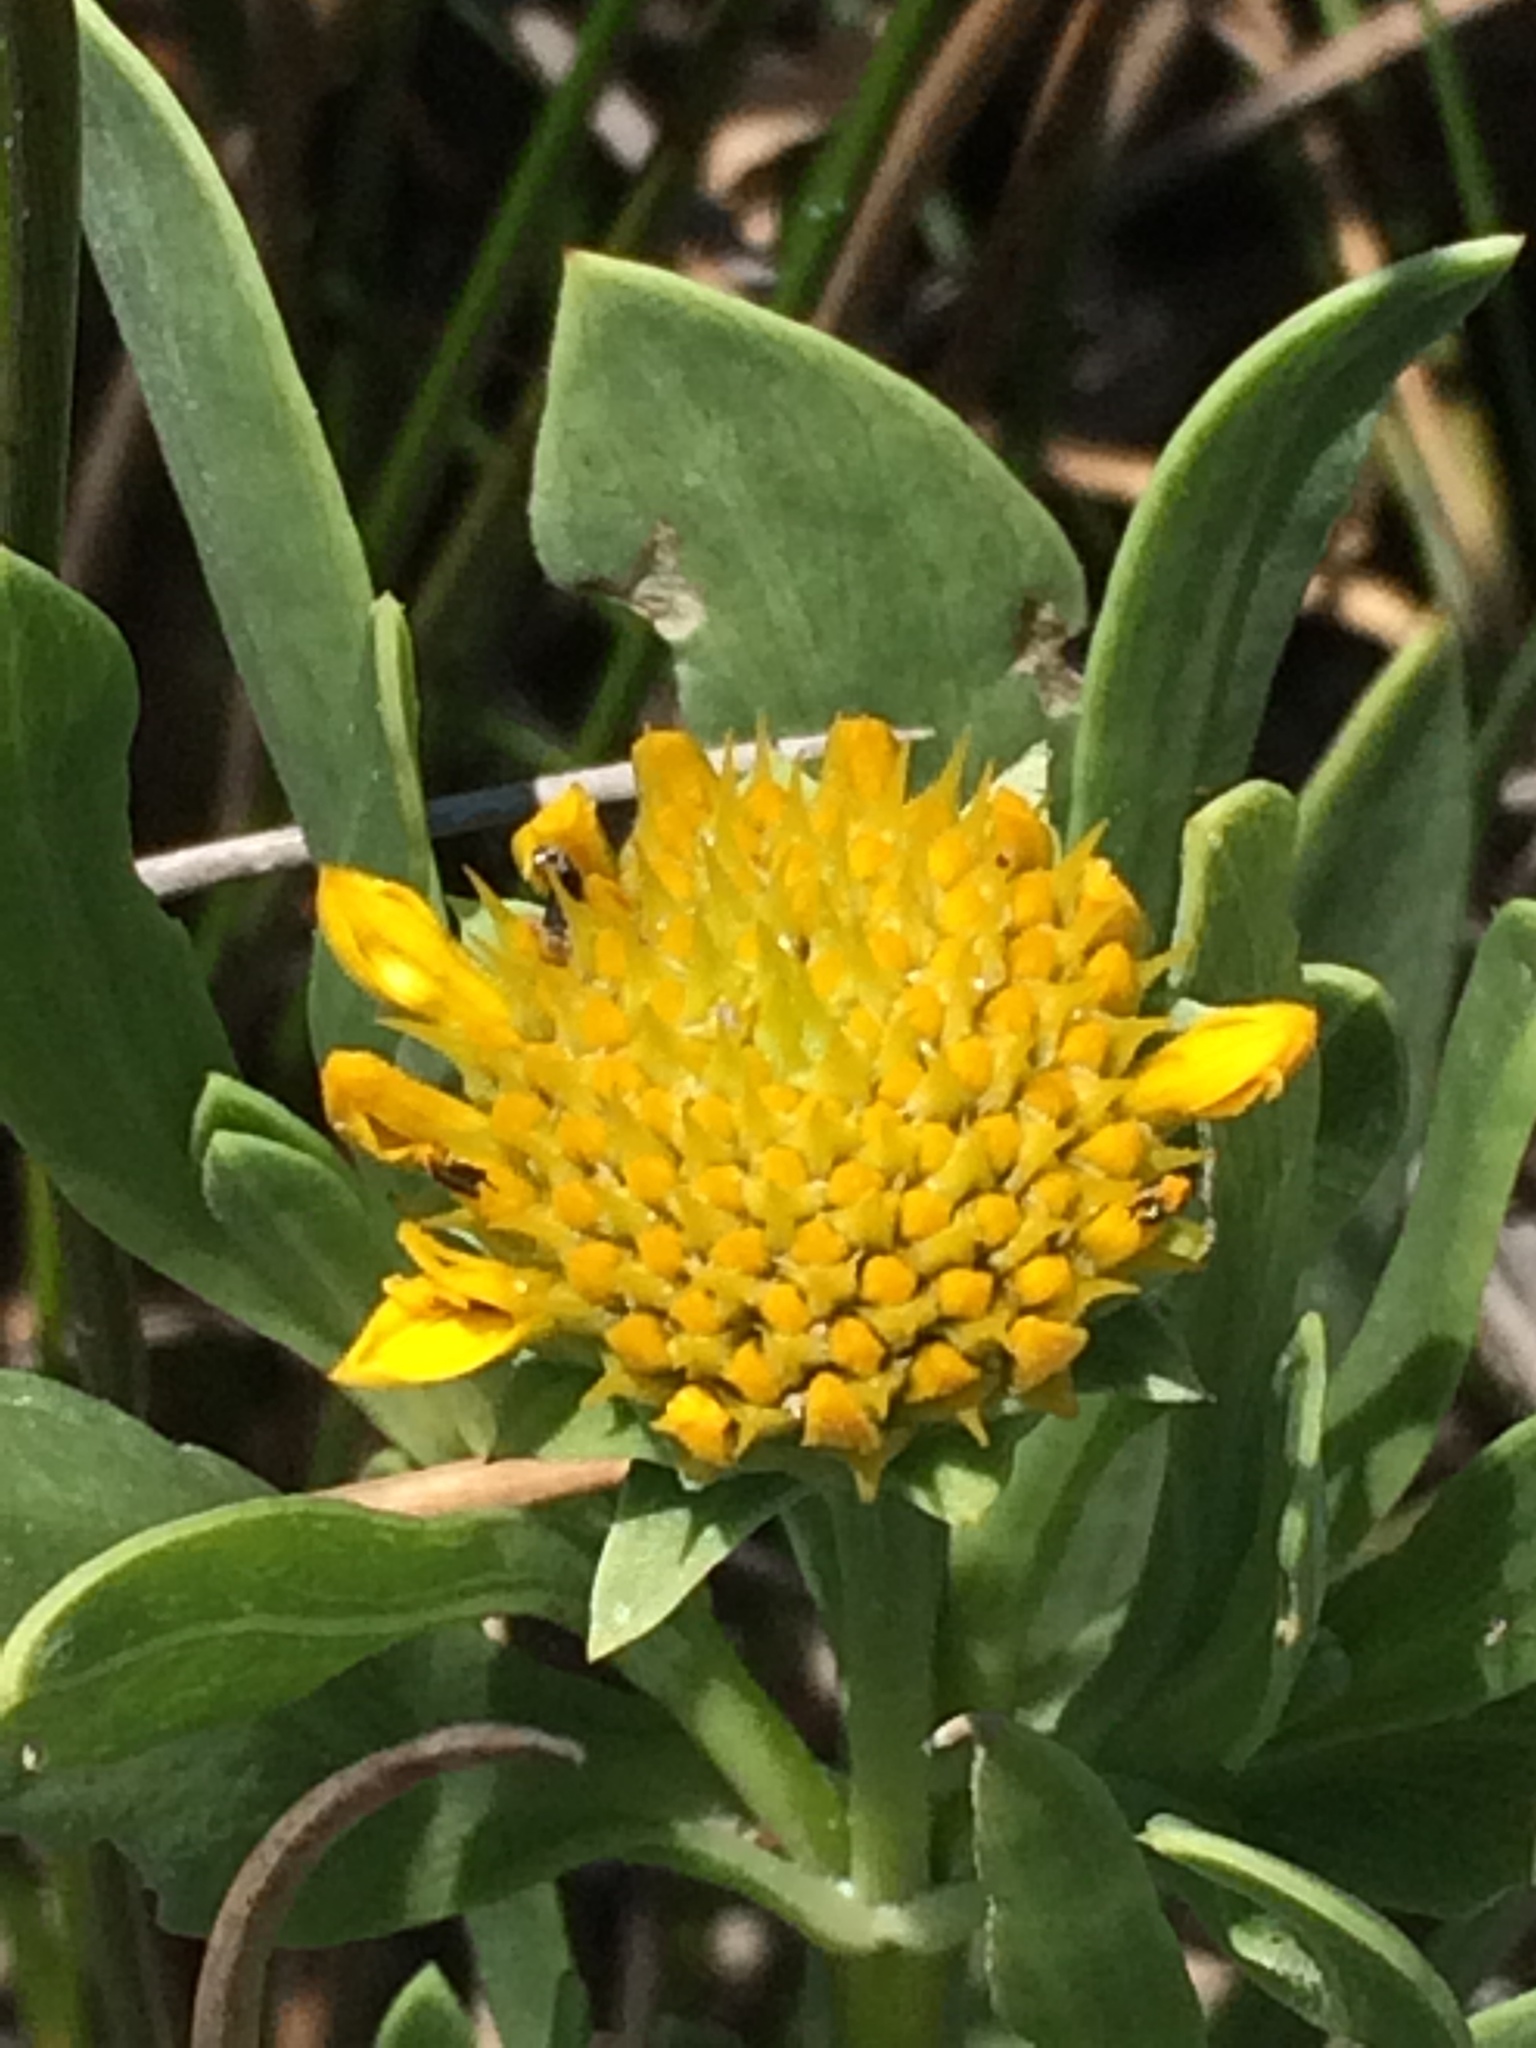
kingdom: Plantae
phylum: Tracheophyta
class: Magnoliopsida
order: Asterales
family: Asteraceae
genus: Borrichia
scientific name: Borrichia frutescens
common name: Sea oxeye
